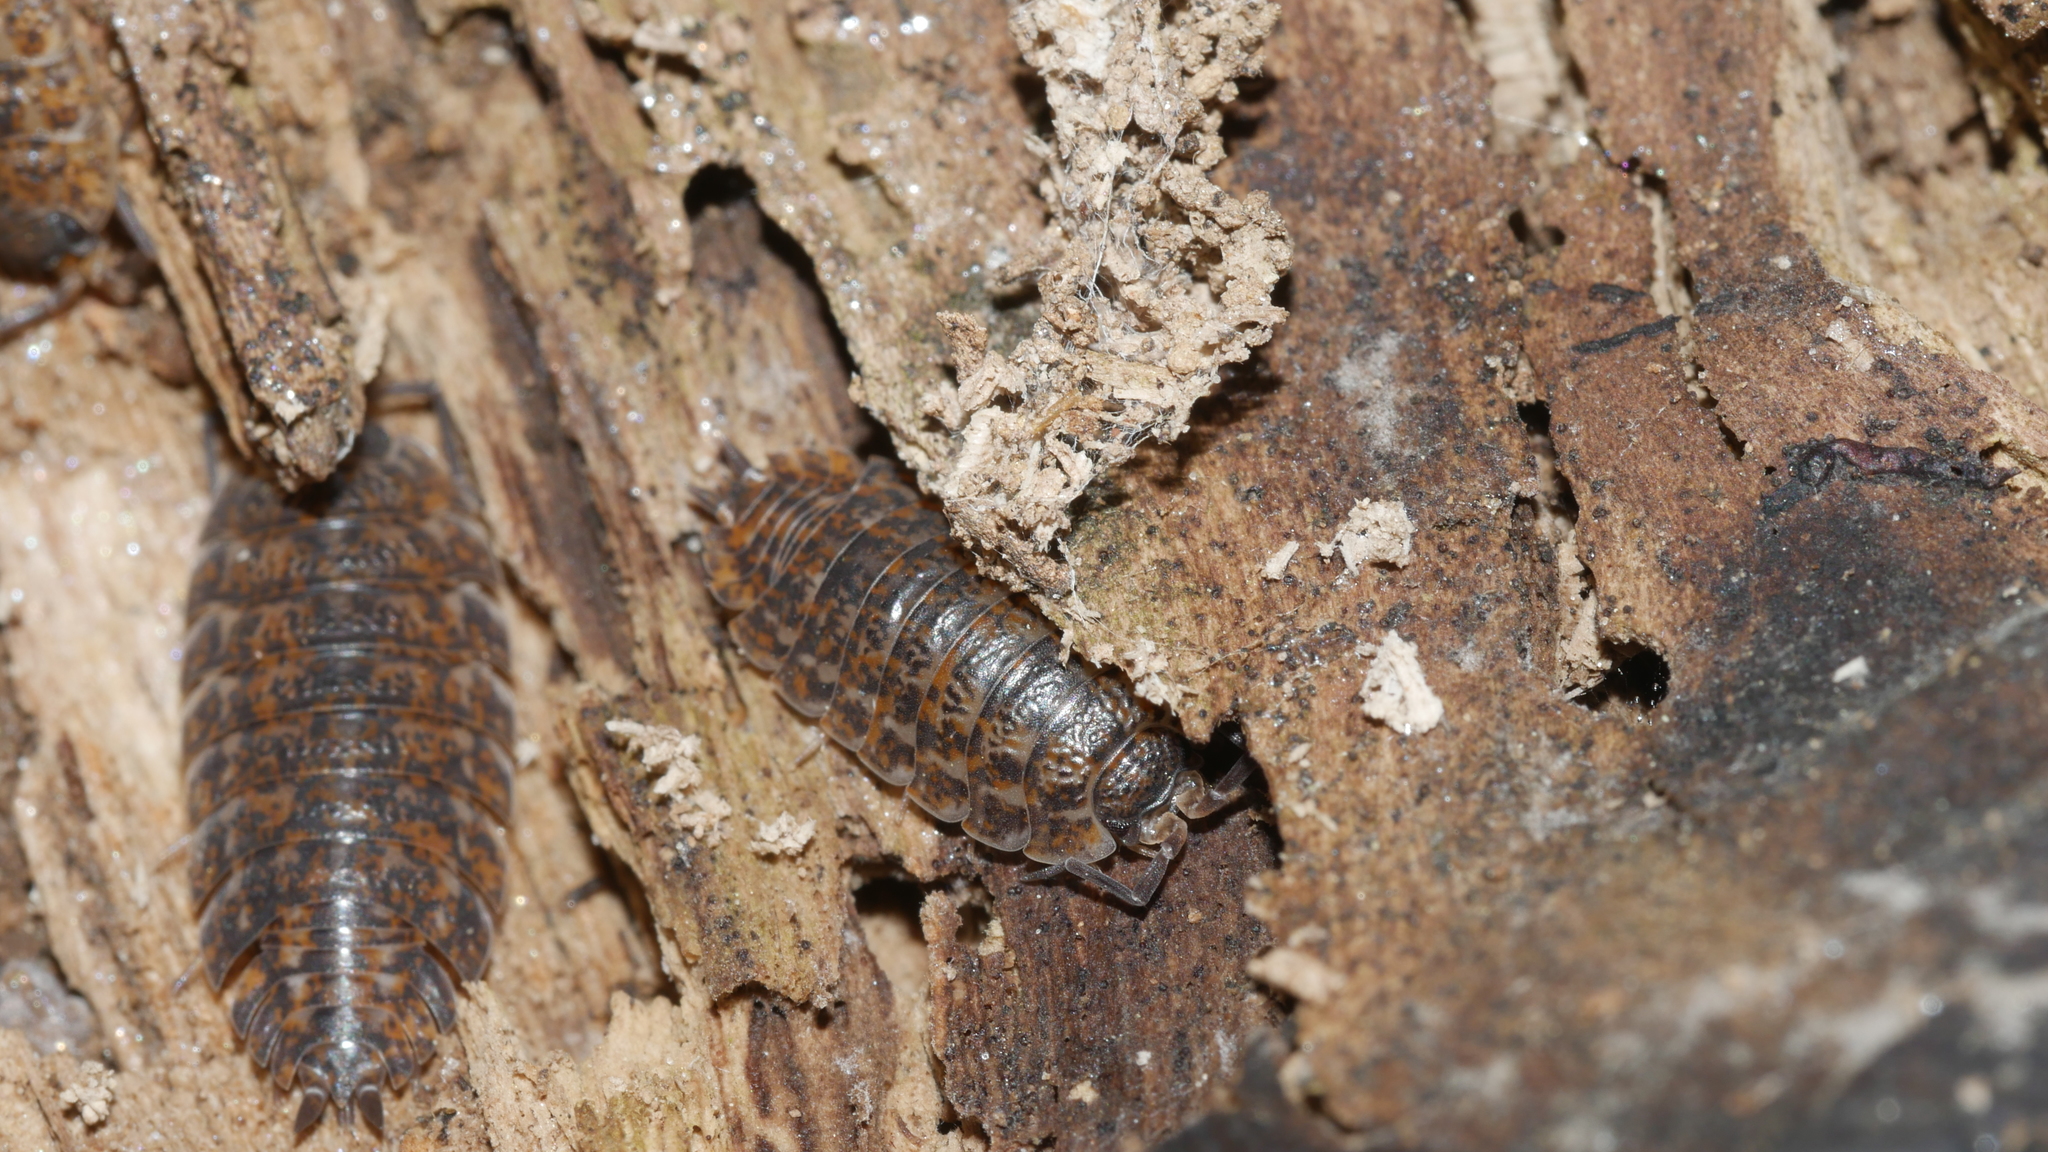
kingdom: Animalia
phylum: Arthropoda
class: Malacostraca
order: Isopoda
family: Trachelipodidae
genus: Trachelipus
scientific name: Trachelipus rathkii
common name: Isopod
